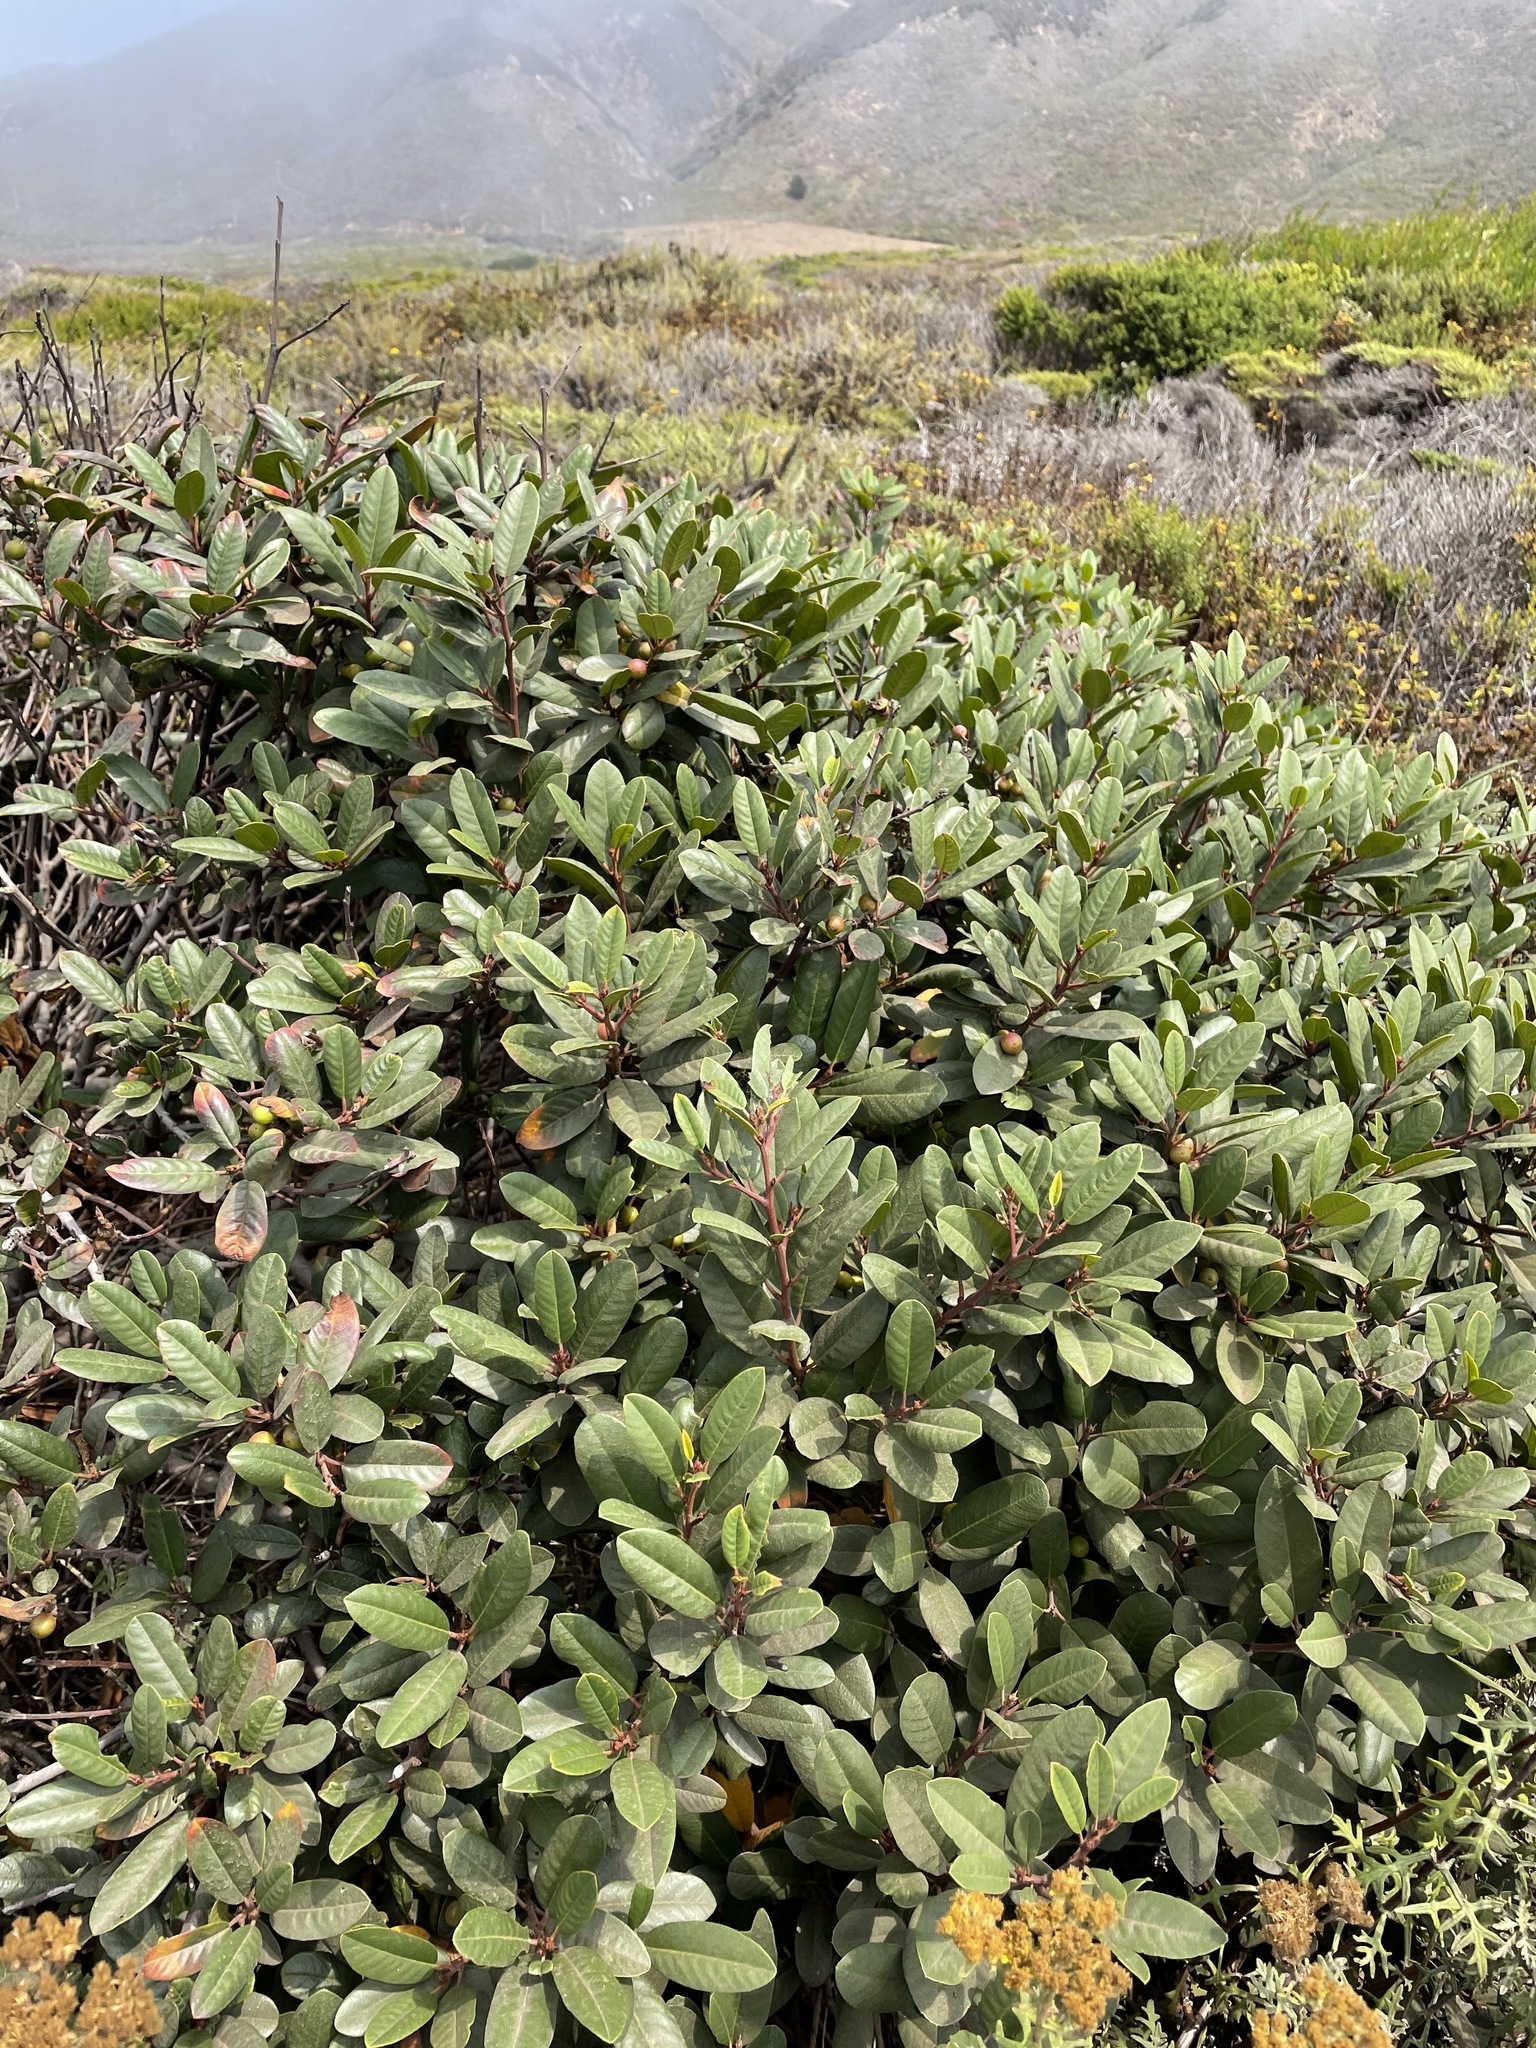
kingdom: Plantae
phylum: Tracheophyta
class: Magnoliopsida
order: Rosales
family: Rhamnaceae
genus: Frangula
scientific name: Frangula californica
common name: California buckthorn
